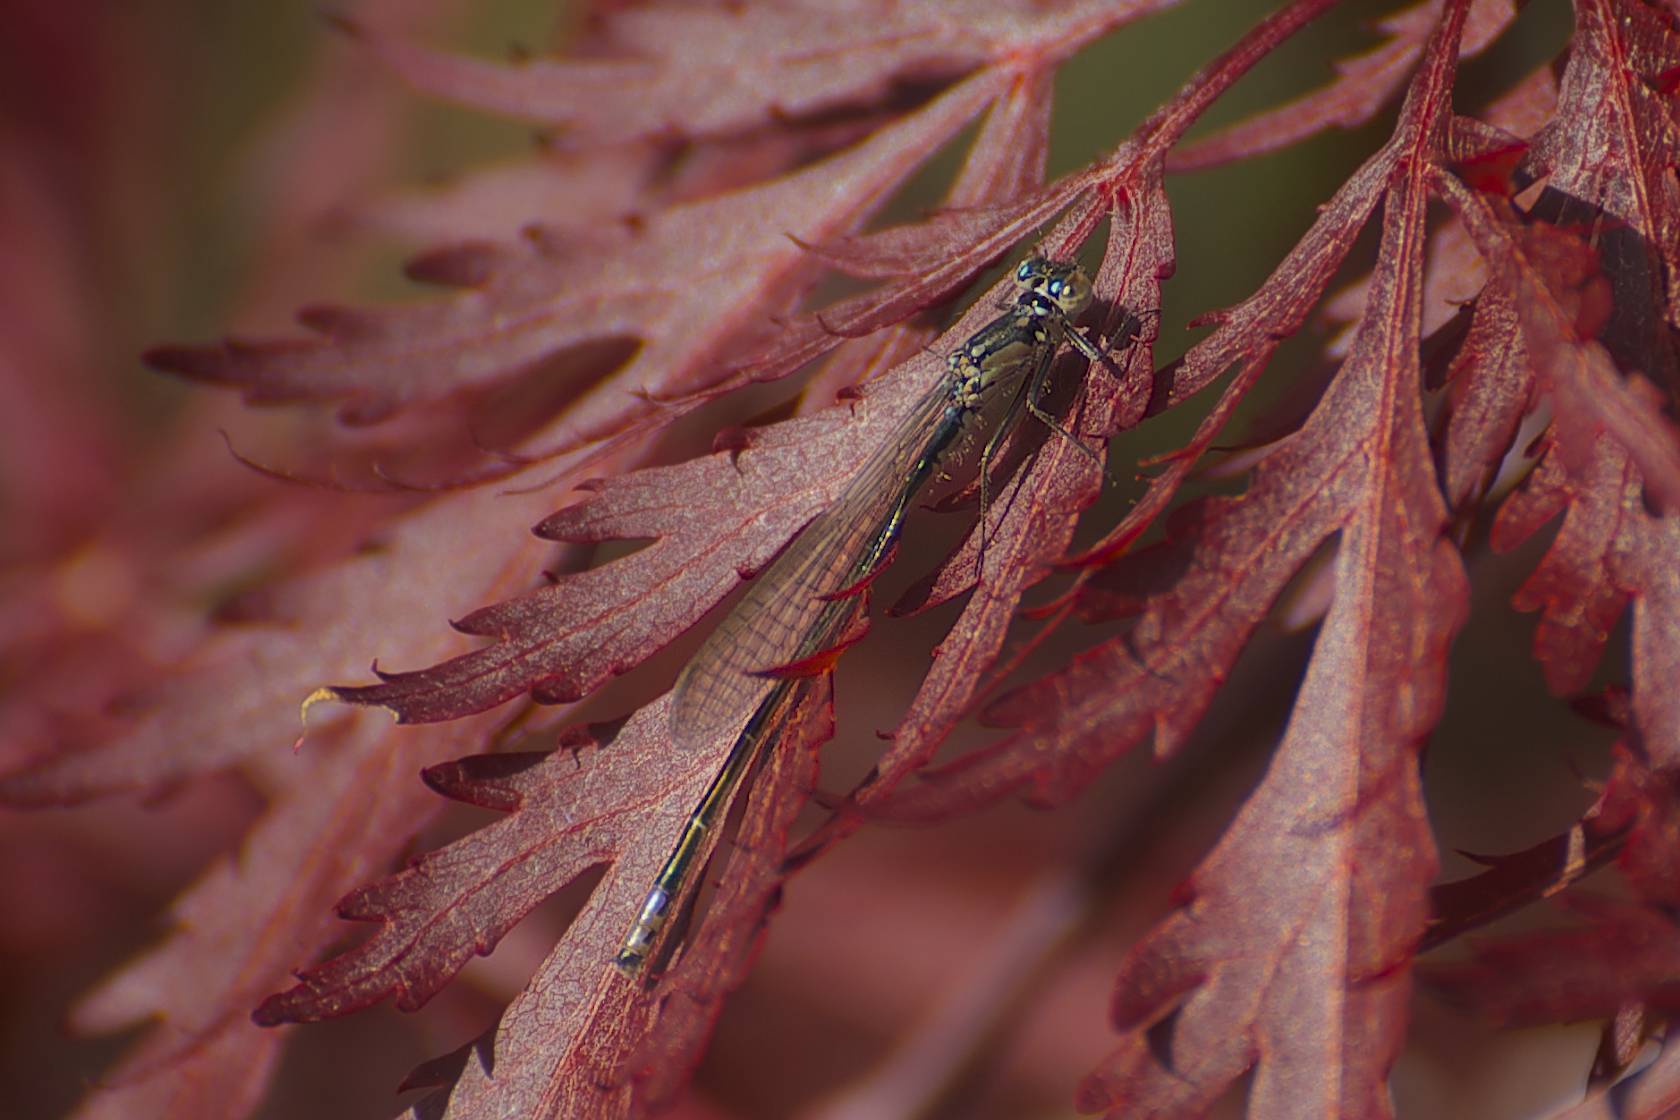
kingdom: Animalia
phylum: Arthropoda
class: Insecta
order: Odonata
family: Coenagrionidae
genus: Ischnura
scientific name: Ischnura cervula
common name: Pacific forktail
